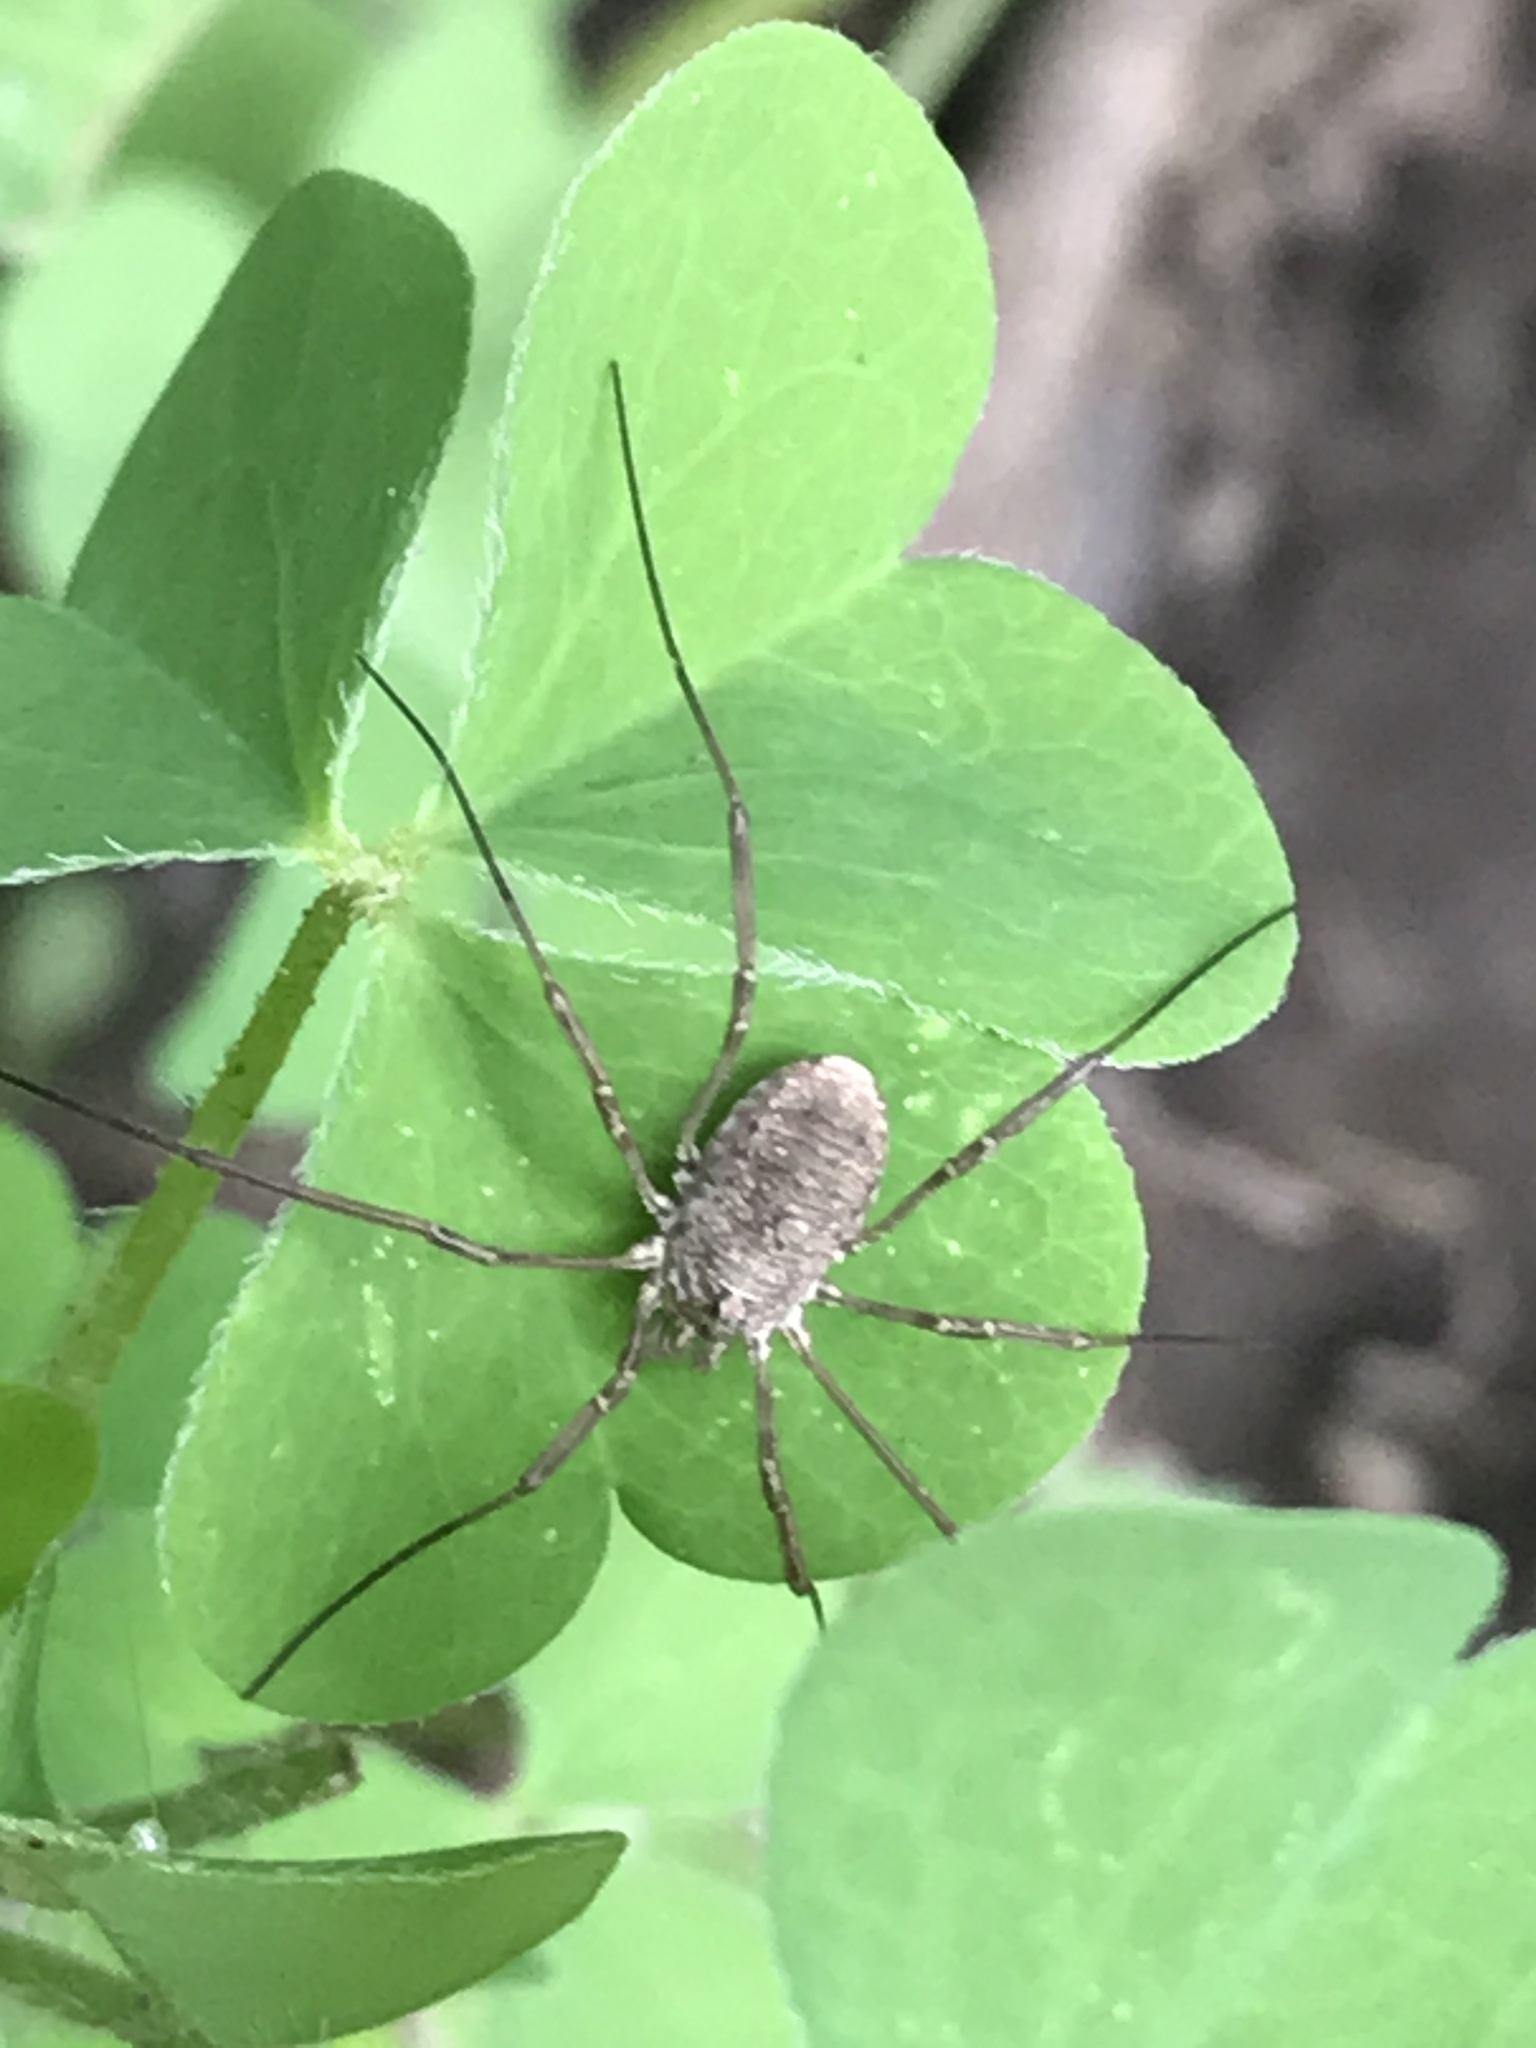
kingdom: Animalia
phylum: Arthropoda
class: Arachnida
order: Opiliones
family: Phalangiidae
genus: Phalangium
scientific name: Phalangium opilio
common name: Daddy longleg
